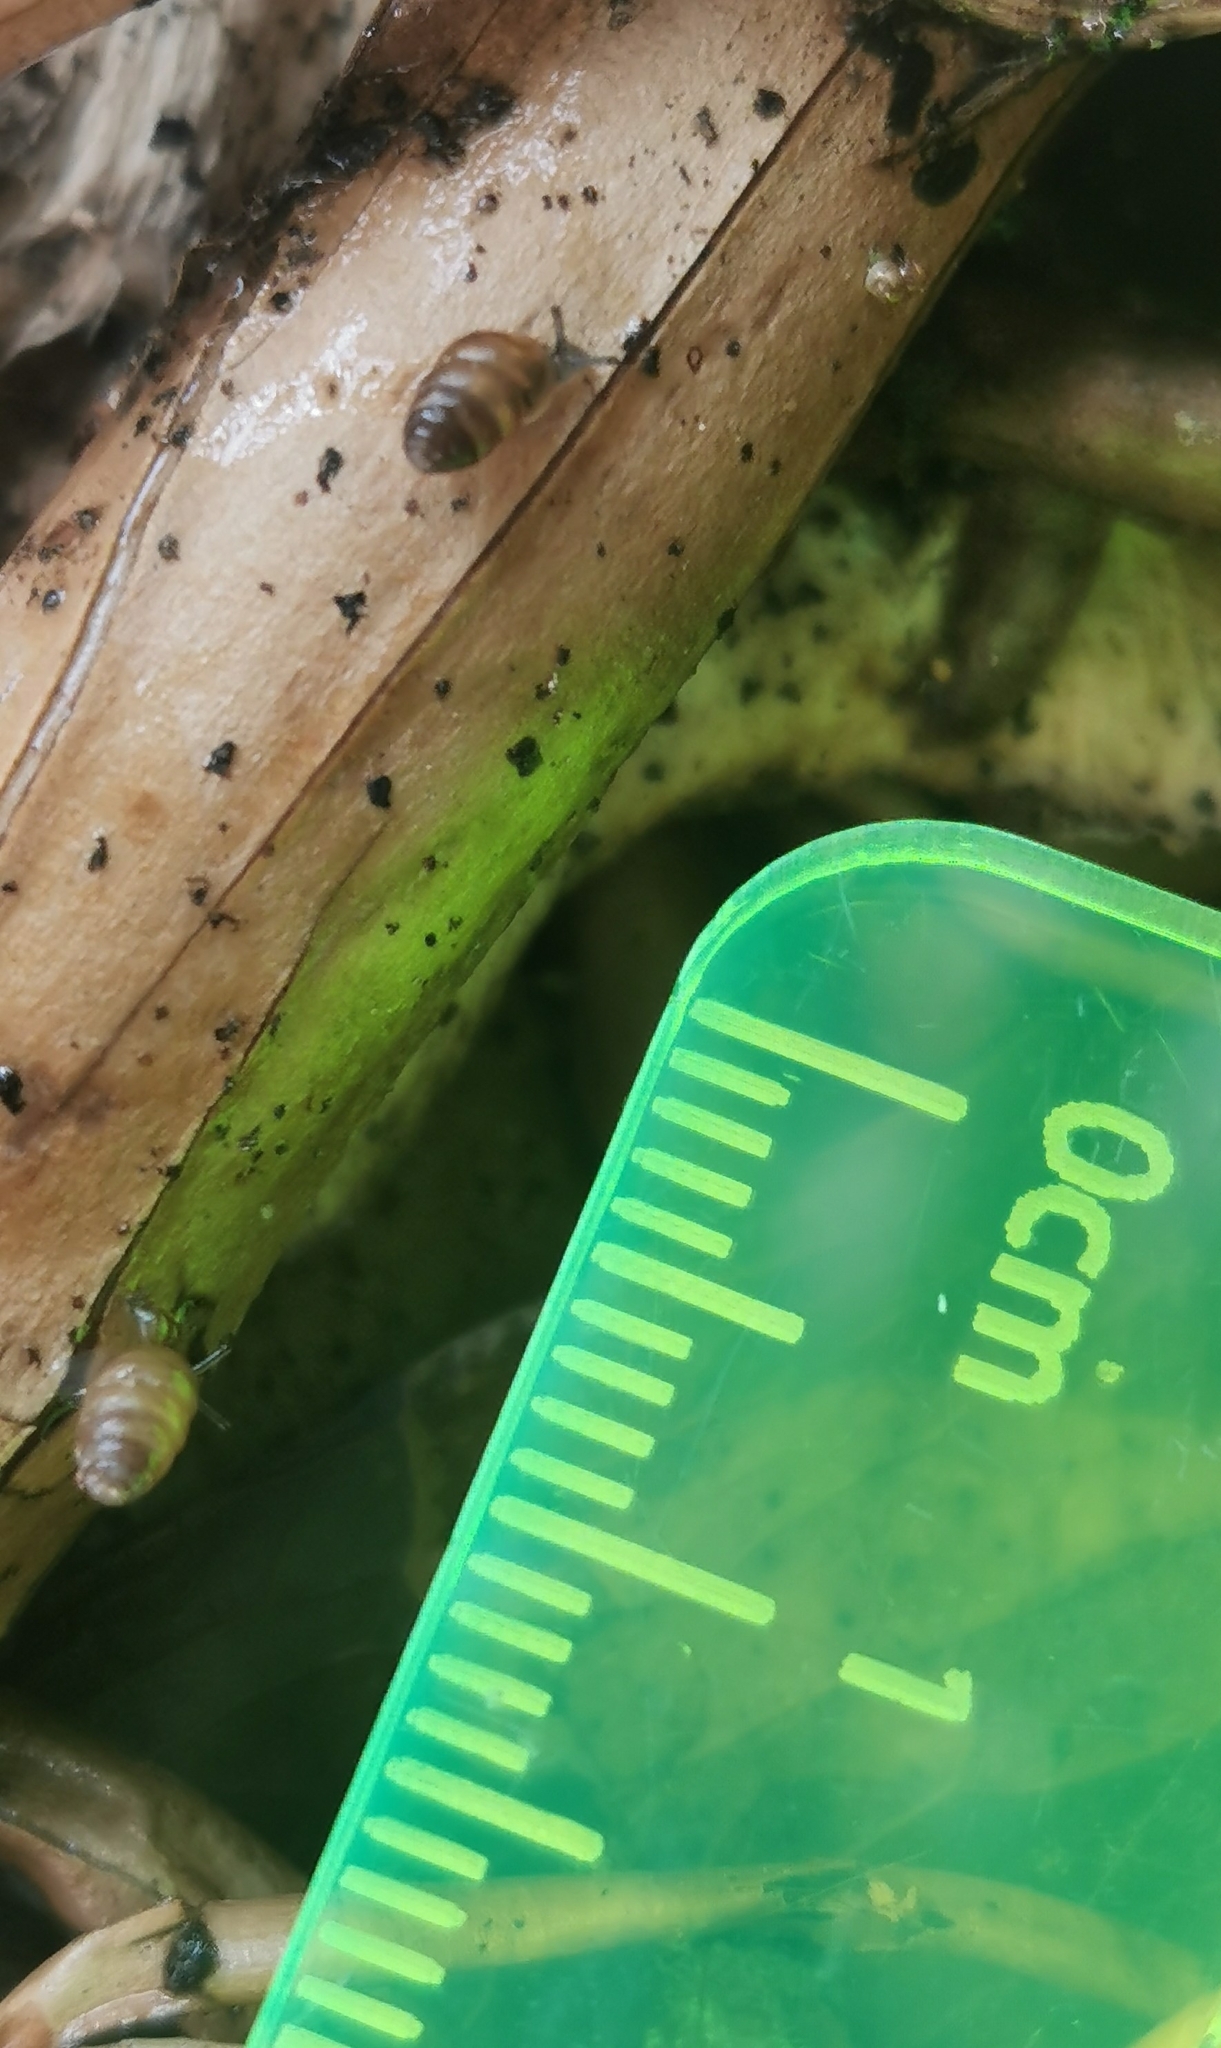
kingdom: Animalia
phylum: Mollusca
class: Gastropoda
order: Stylommatophora
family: Lauriidae
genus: Lauria
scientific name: Lauria cylindracea
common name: Common chrysalis snail
